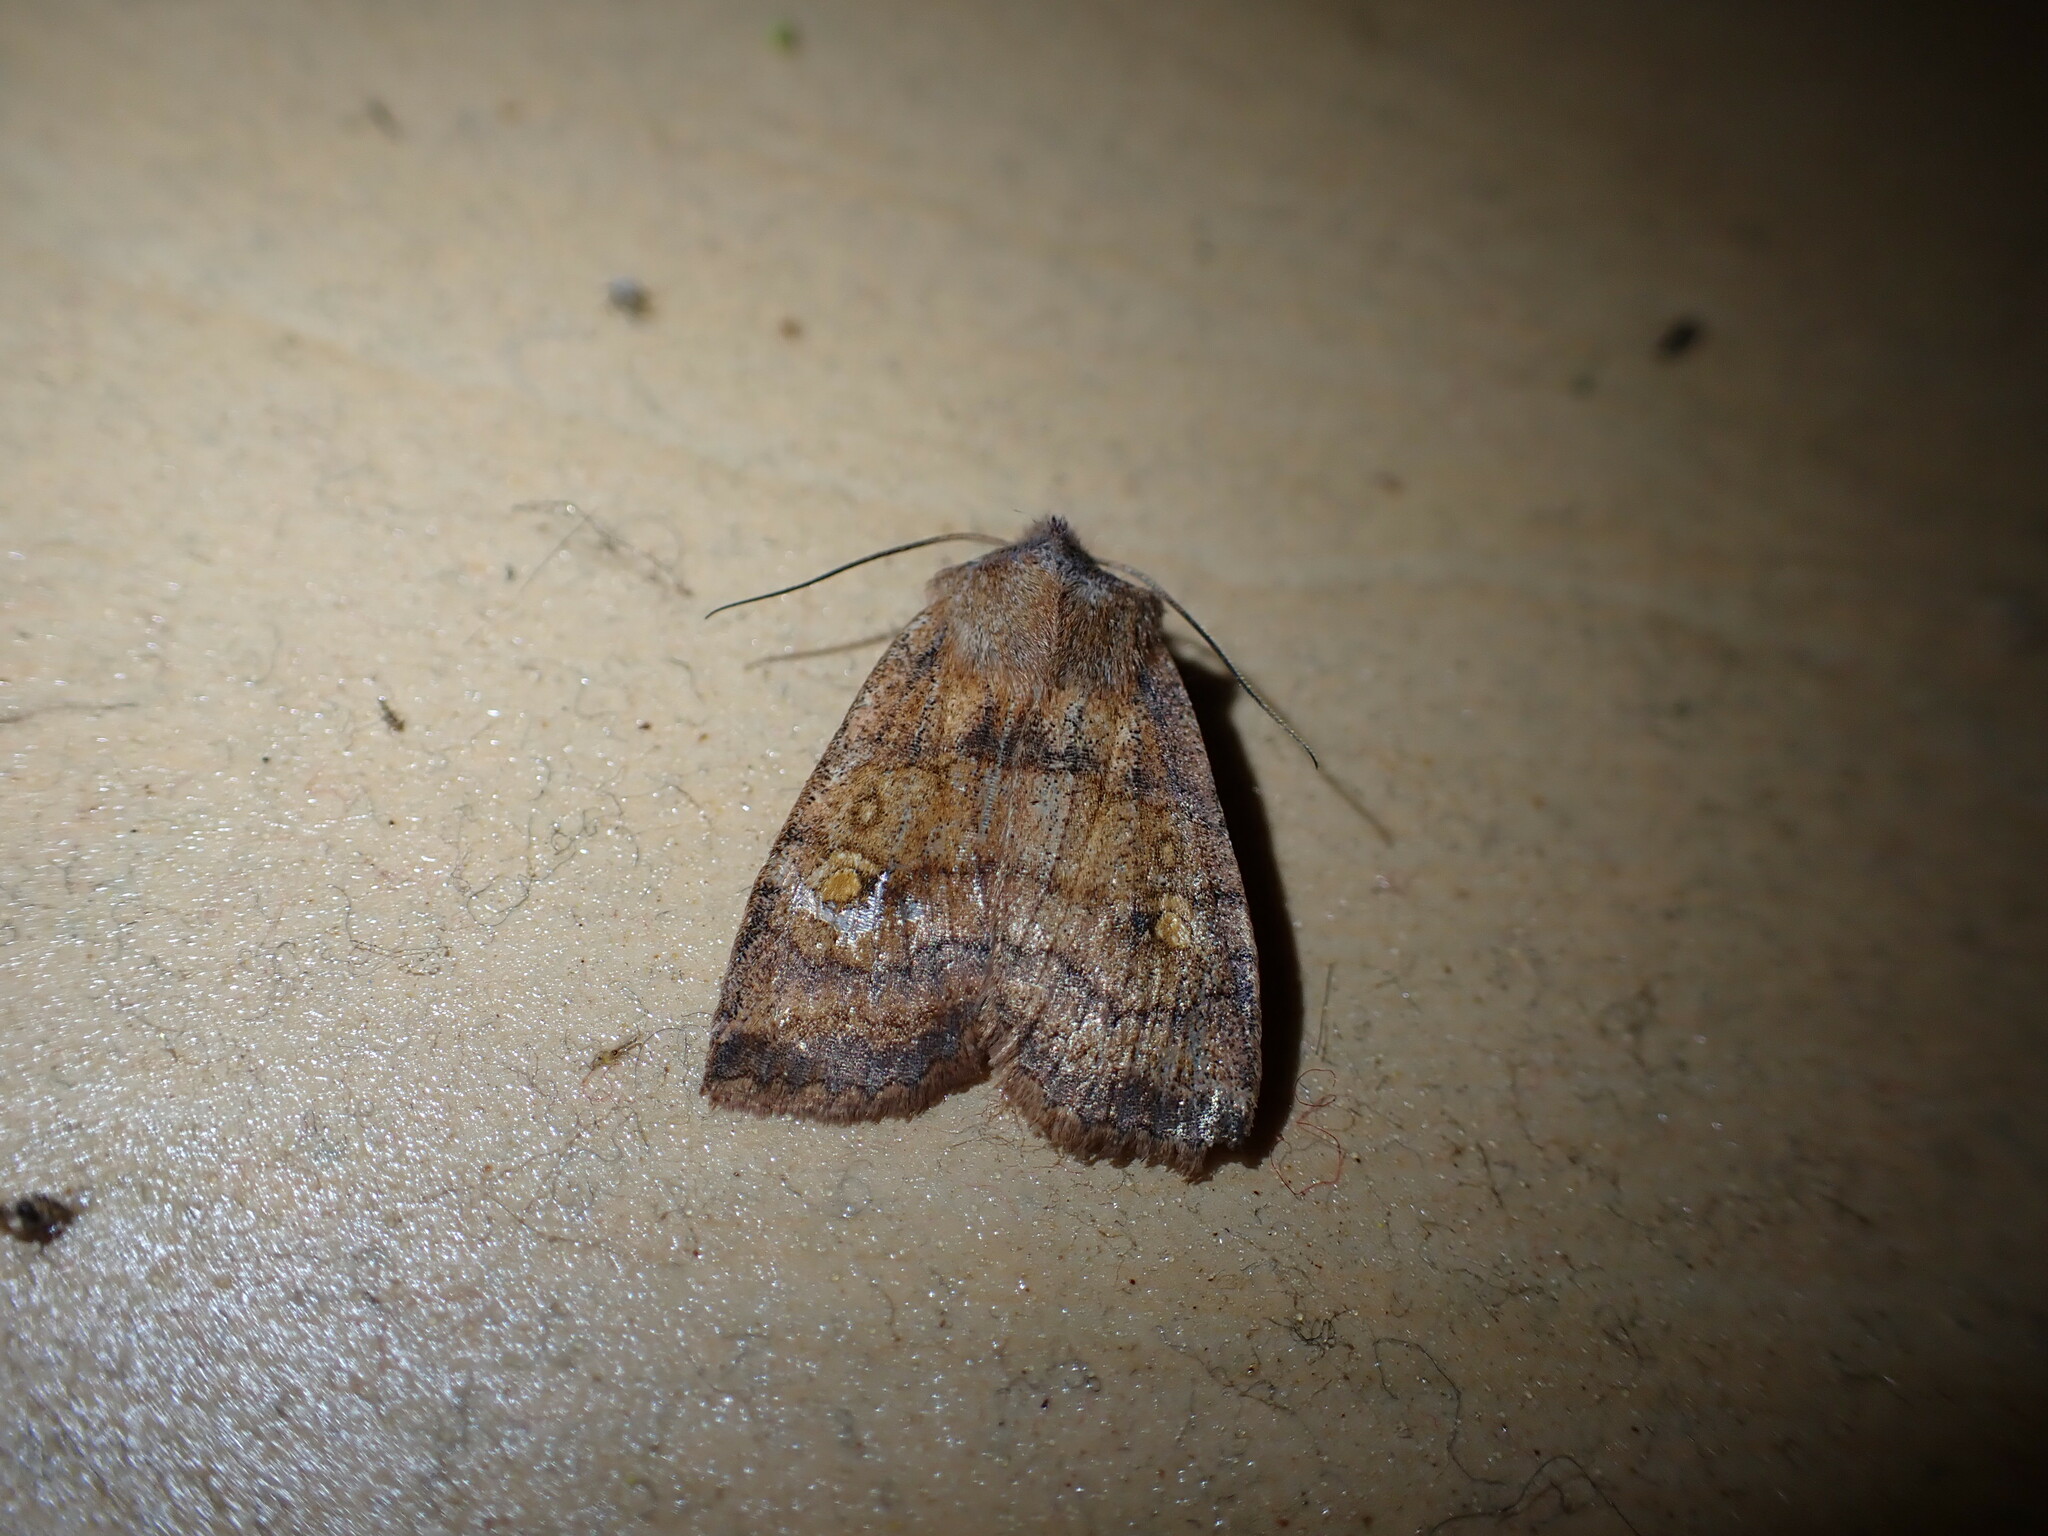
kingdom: Animalia
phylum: Arthropoda
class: Insecta
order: Lepidoptera
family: Noctuidae
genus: Eupsilia
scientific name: Eupsilia tristigmata
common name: Three-spotted sallow
